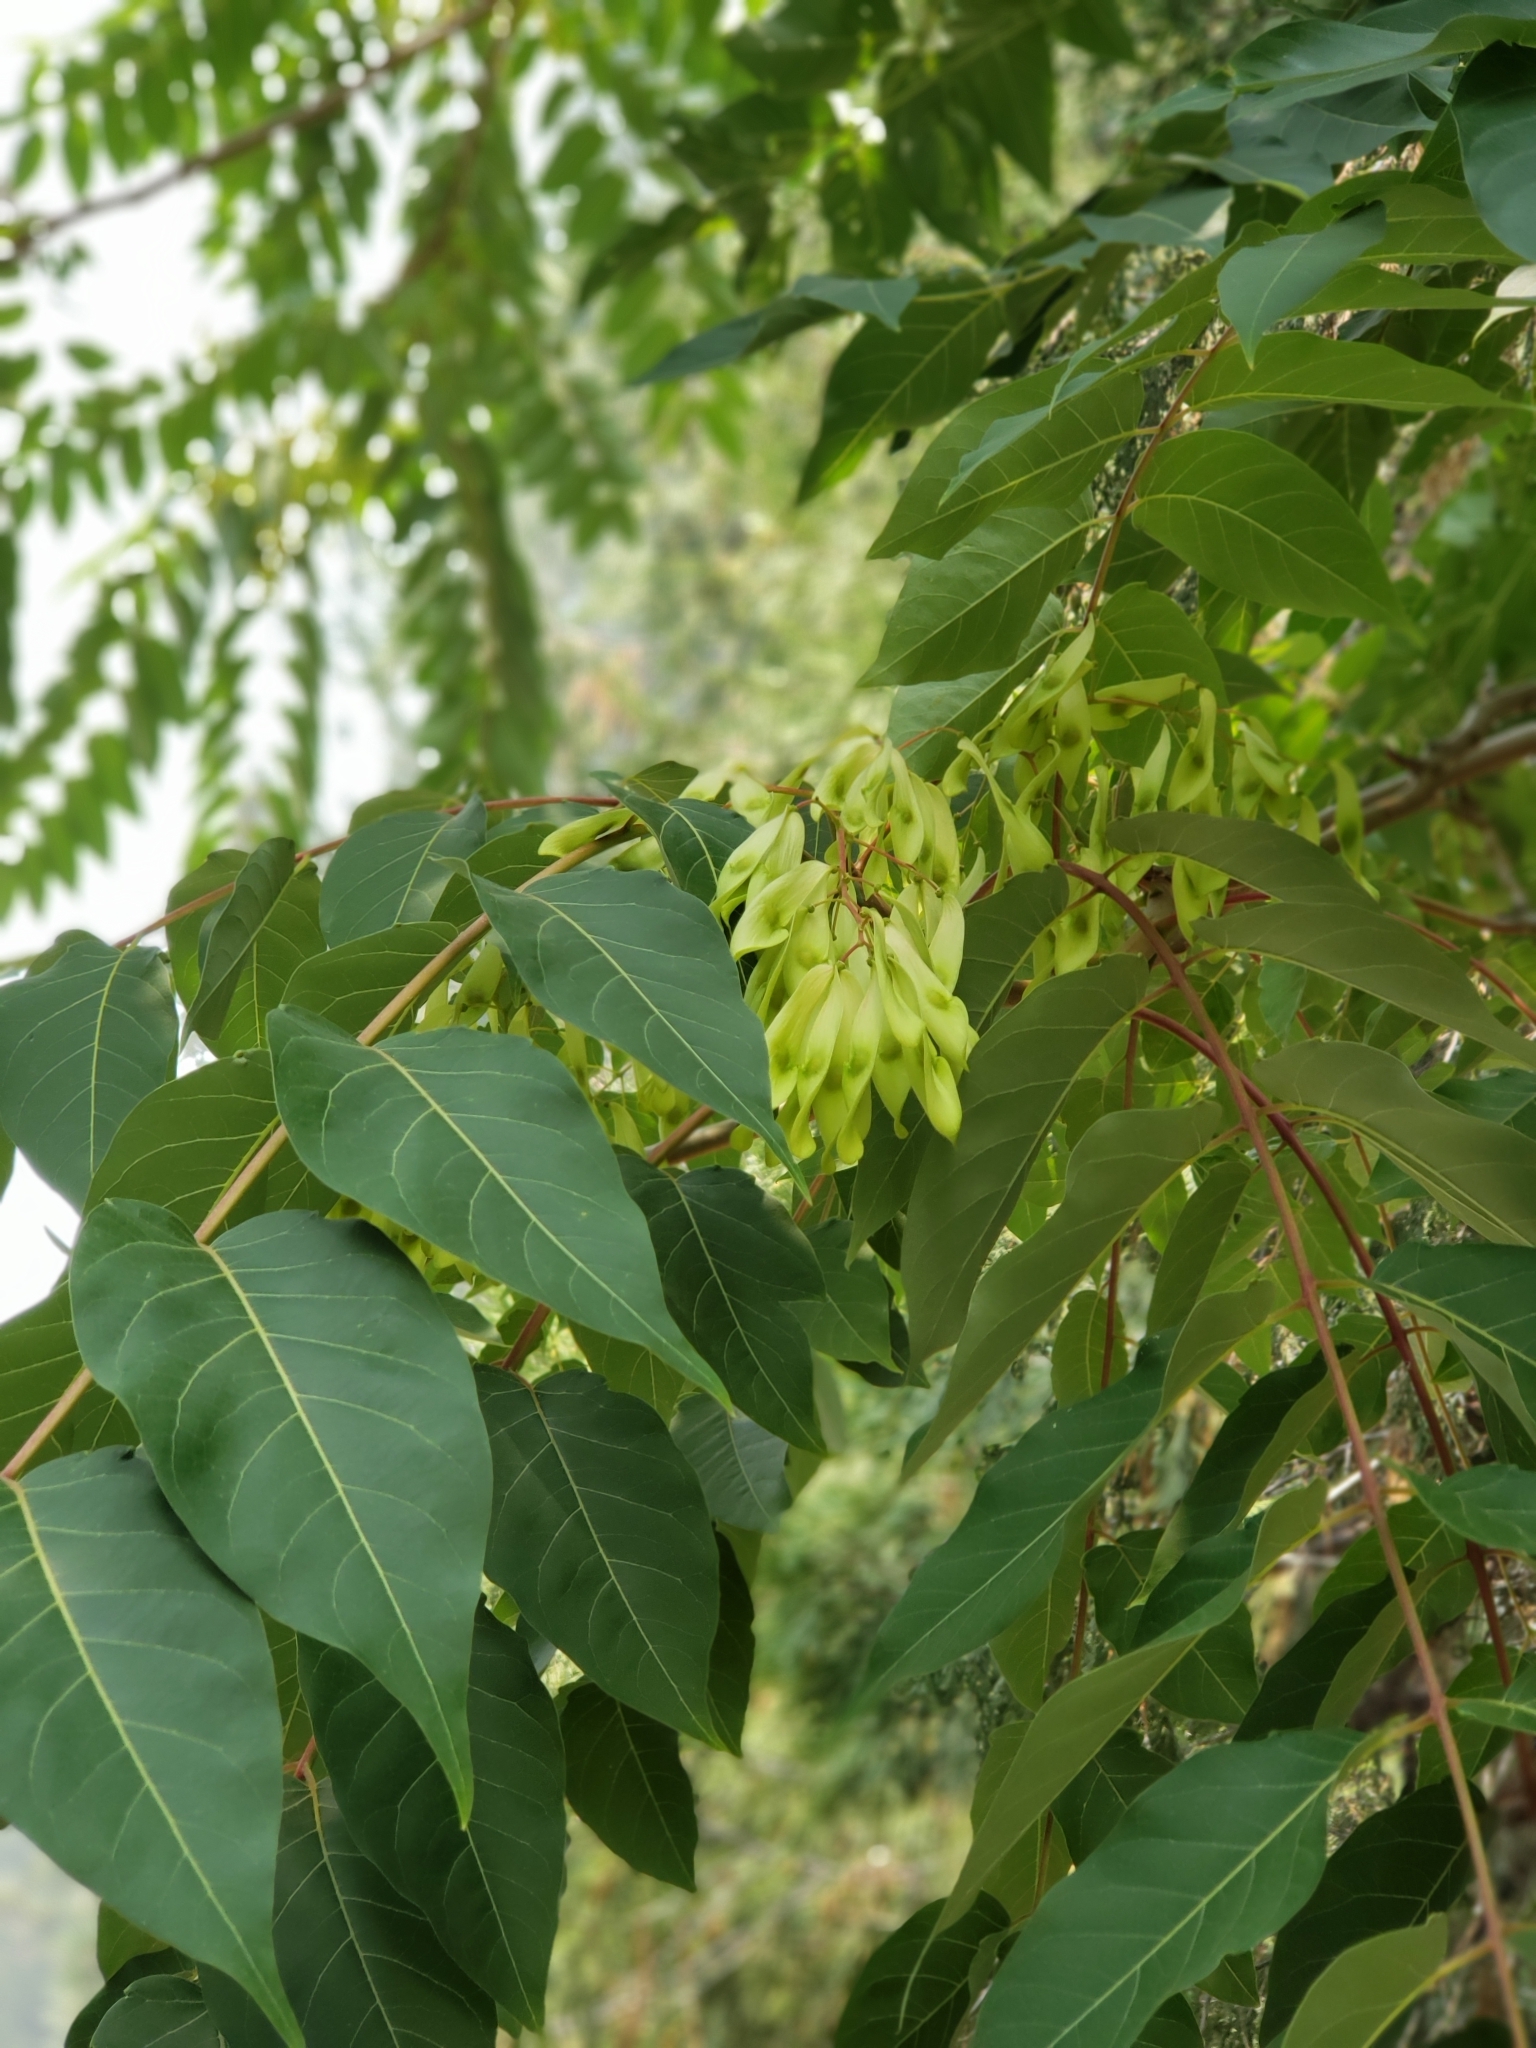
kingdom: Plantae
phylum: Tracheophyta
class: Magnoliopsida
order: Sapindales
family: Simaroubaceae
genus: Ailanthus
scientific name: Ailanthus altissima
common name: Tree-of-heaven
